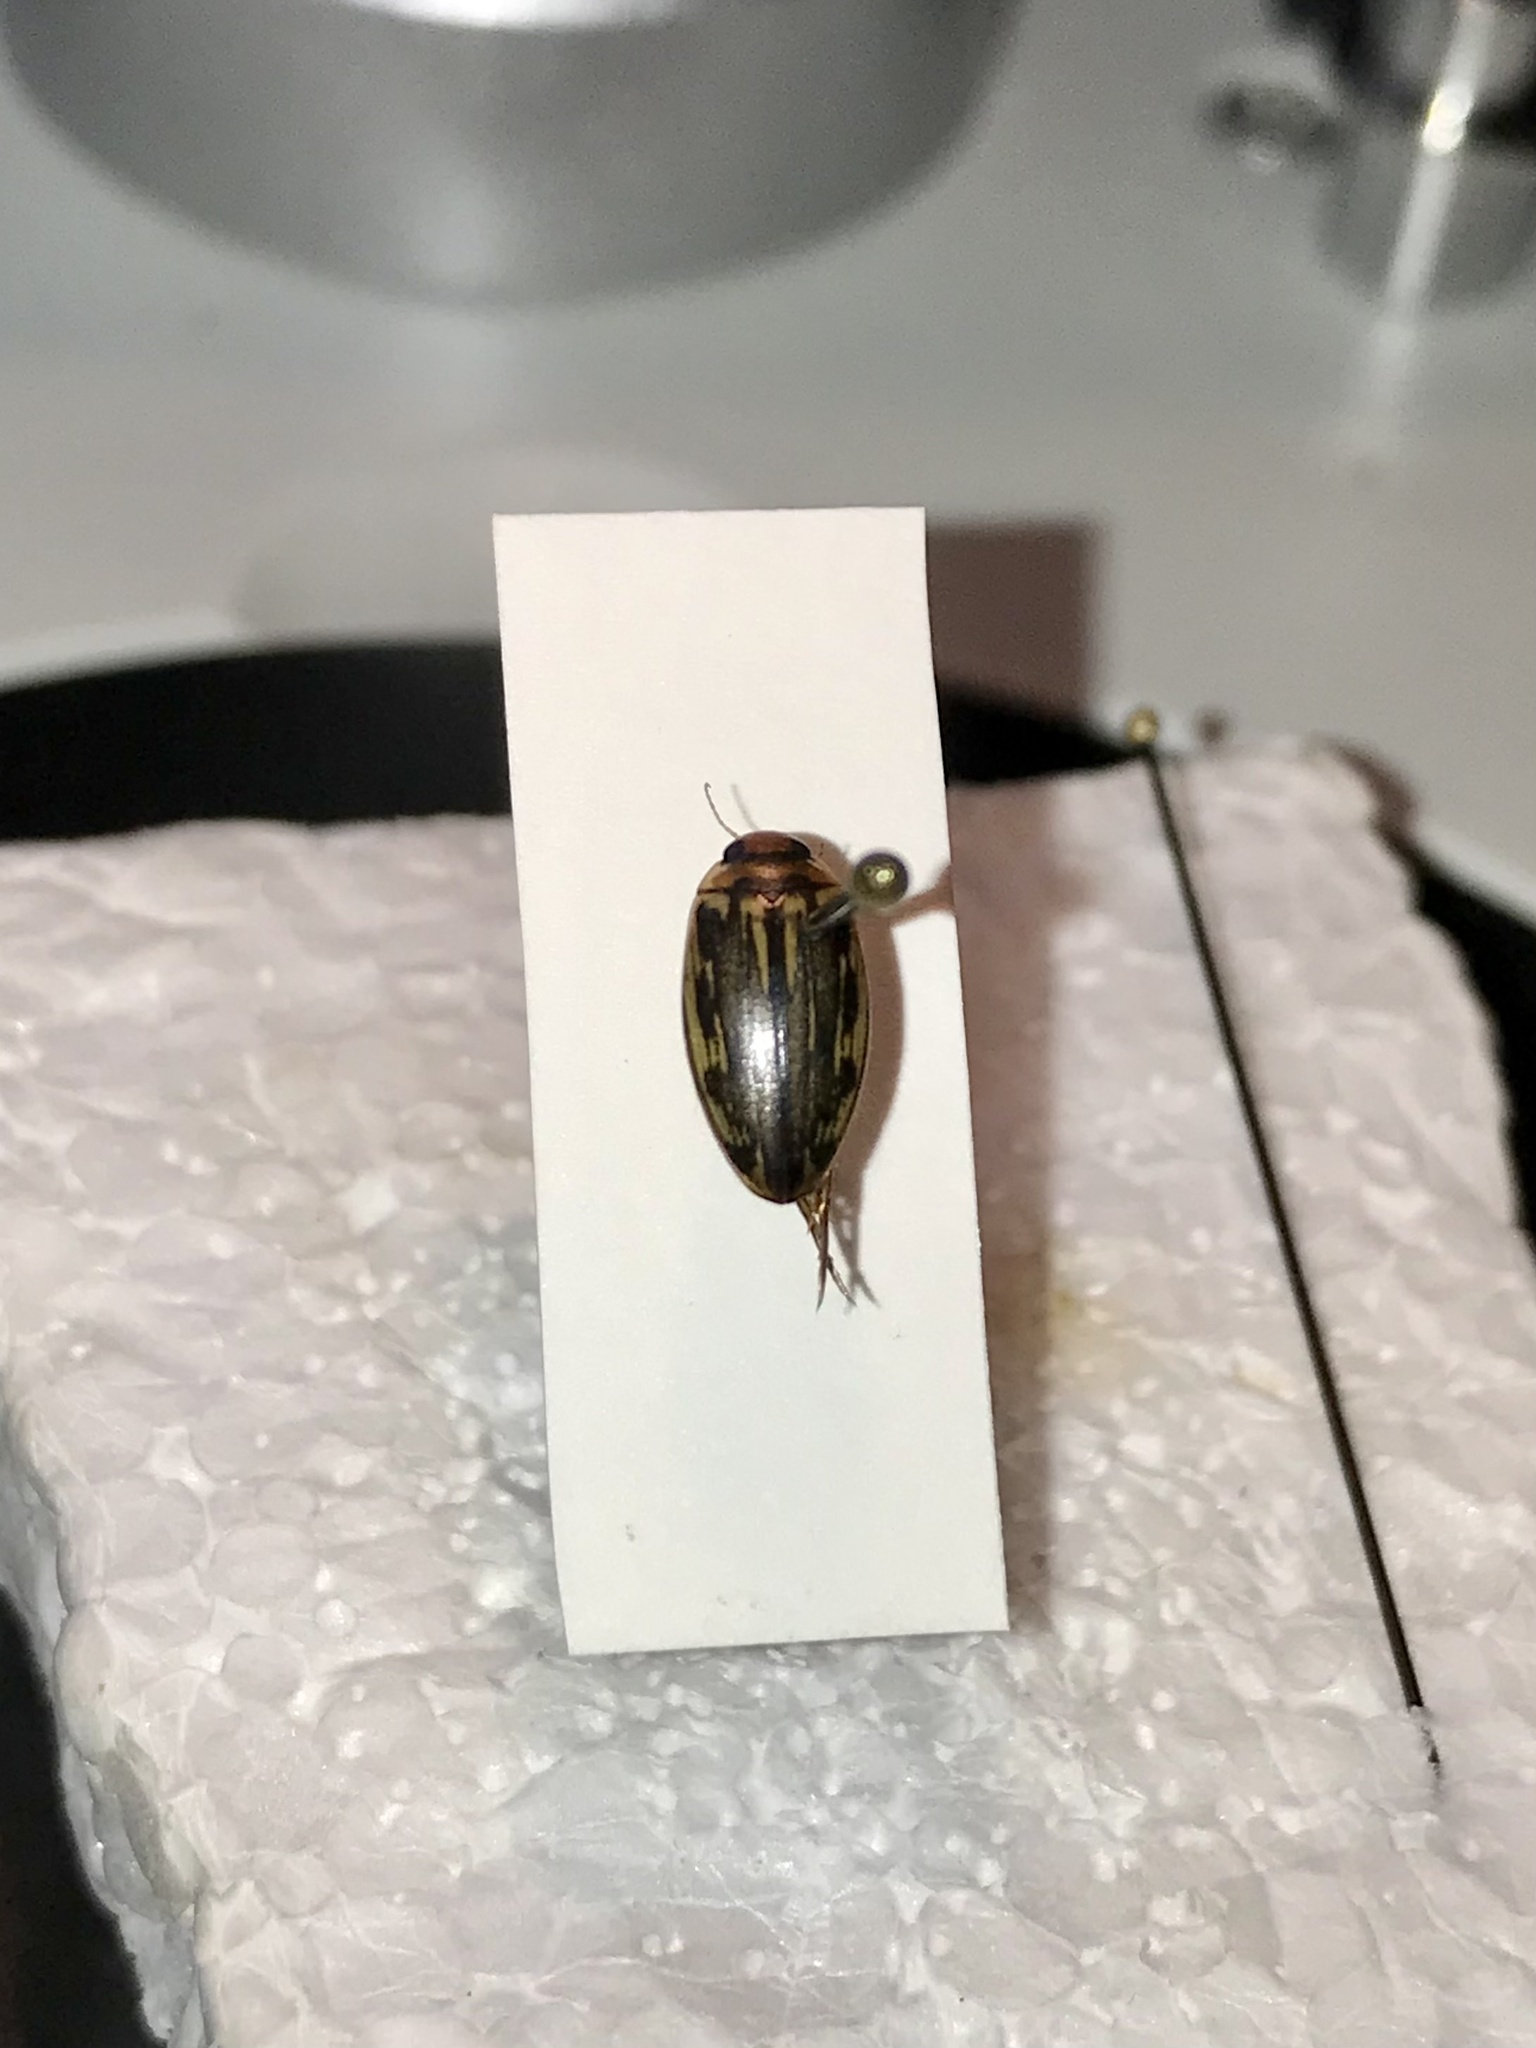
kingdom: Animalia
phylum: Arthropoda
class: Insecta
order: Coleoptera
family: Dytiscidae
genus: Coptotomus
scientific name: Coptotomus longulus
